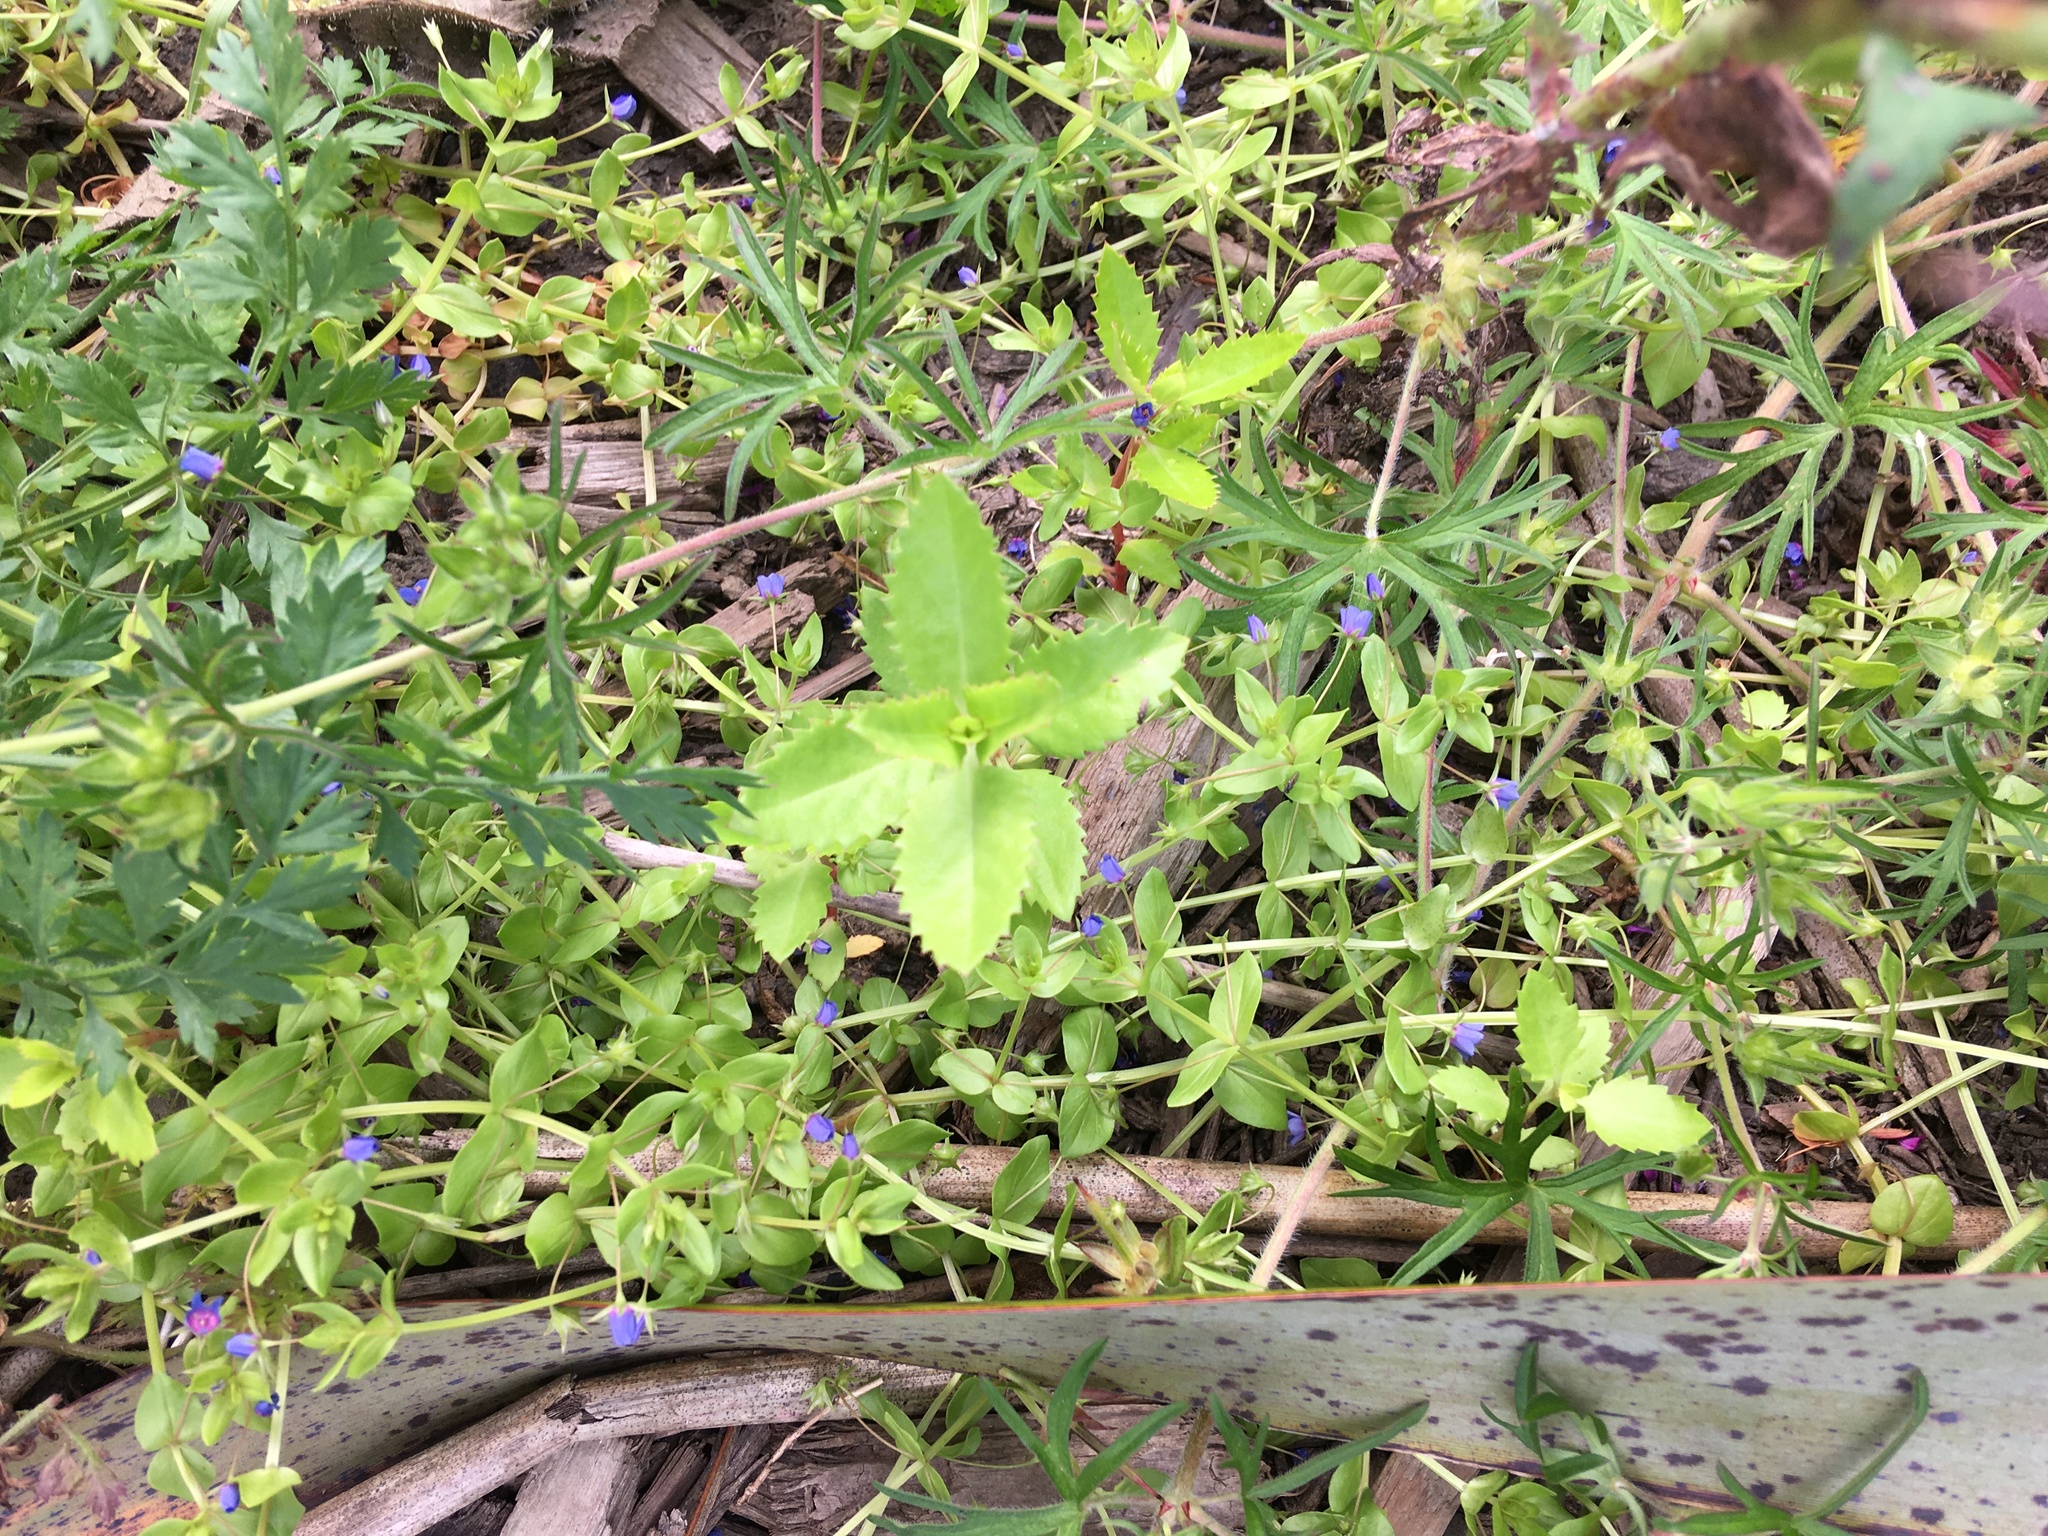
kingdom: Plantae
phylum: Tracheophyta
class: Magnoliopsida
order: Ericales
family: Primulaceae
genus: Lysimachia
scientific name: Lysimachia arvensis
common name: Scarlet pimpernel
